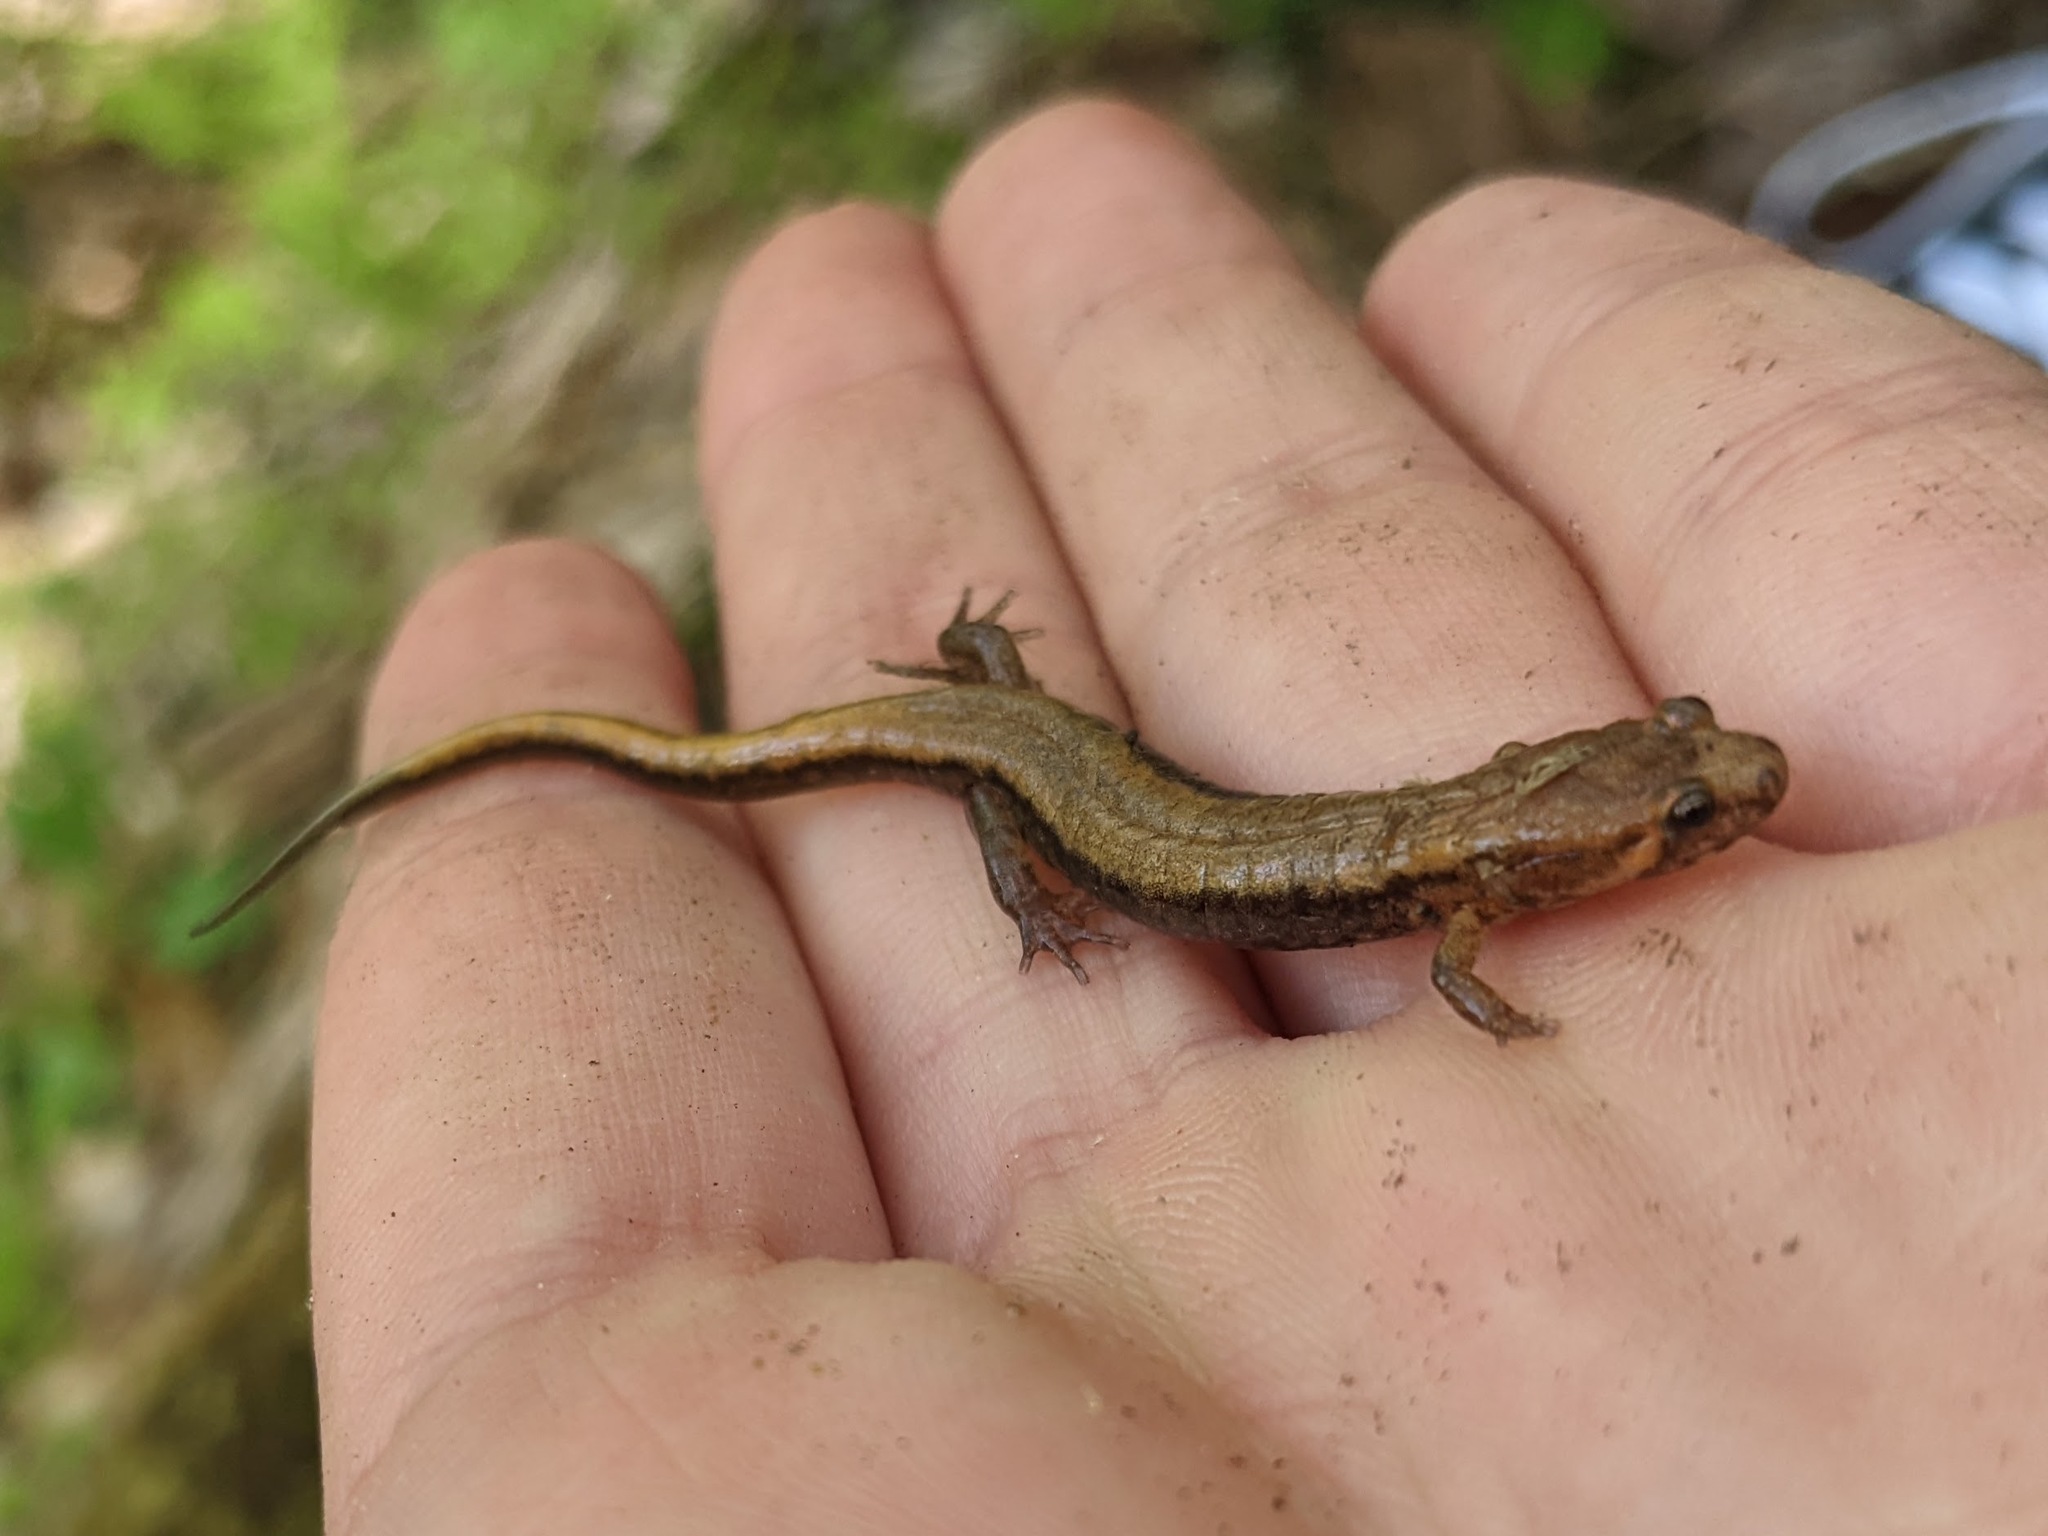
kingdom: Animalia
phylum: Chordata
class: Amphibia
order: Caudata
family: Plethodontidae
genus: Desmognathus
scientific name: Desmognathus ochrophaeus
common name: Allegheny mountain dusky salamander
